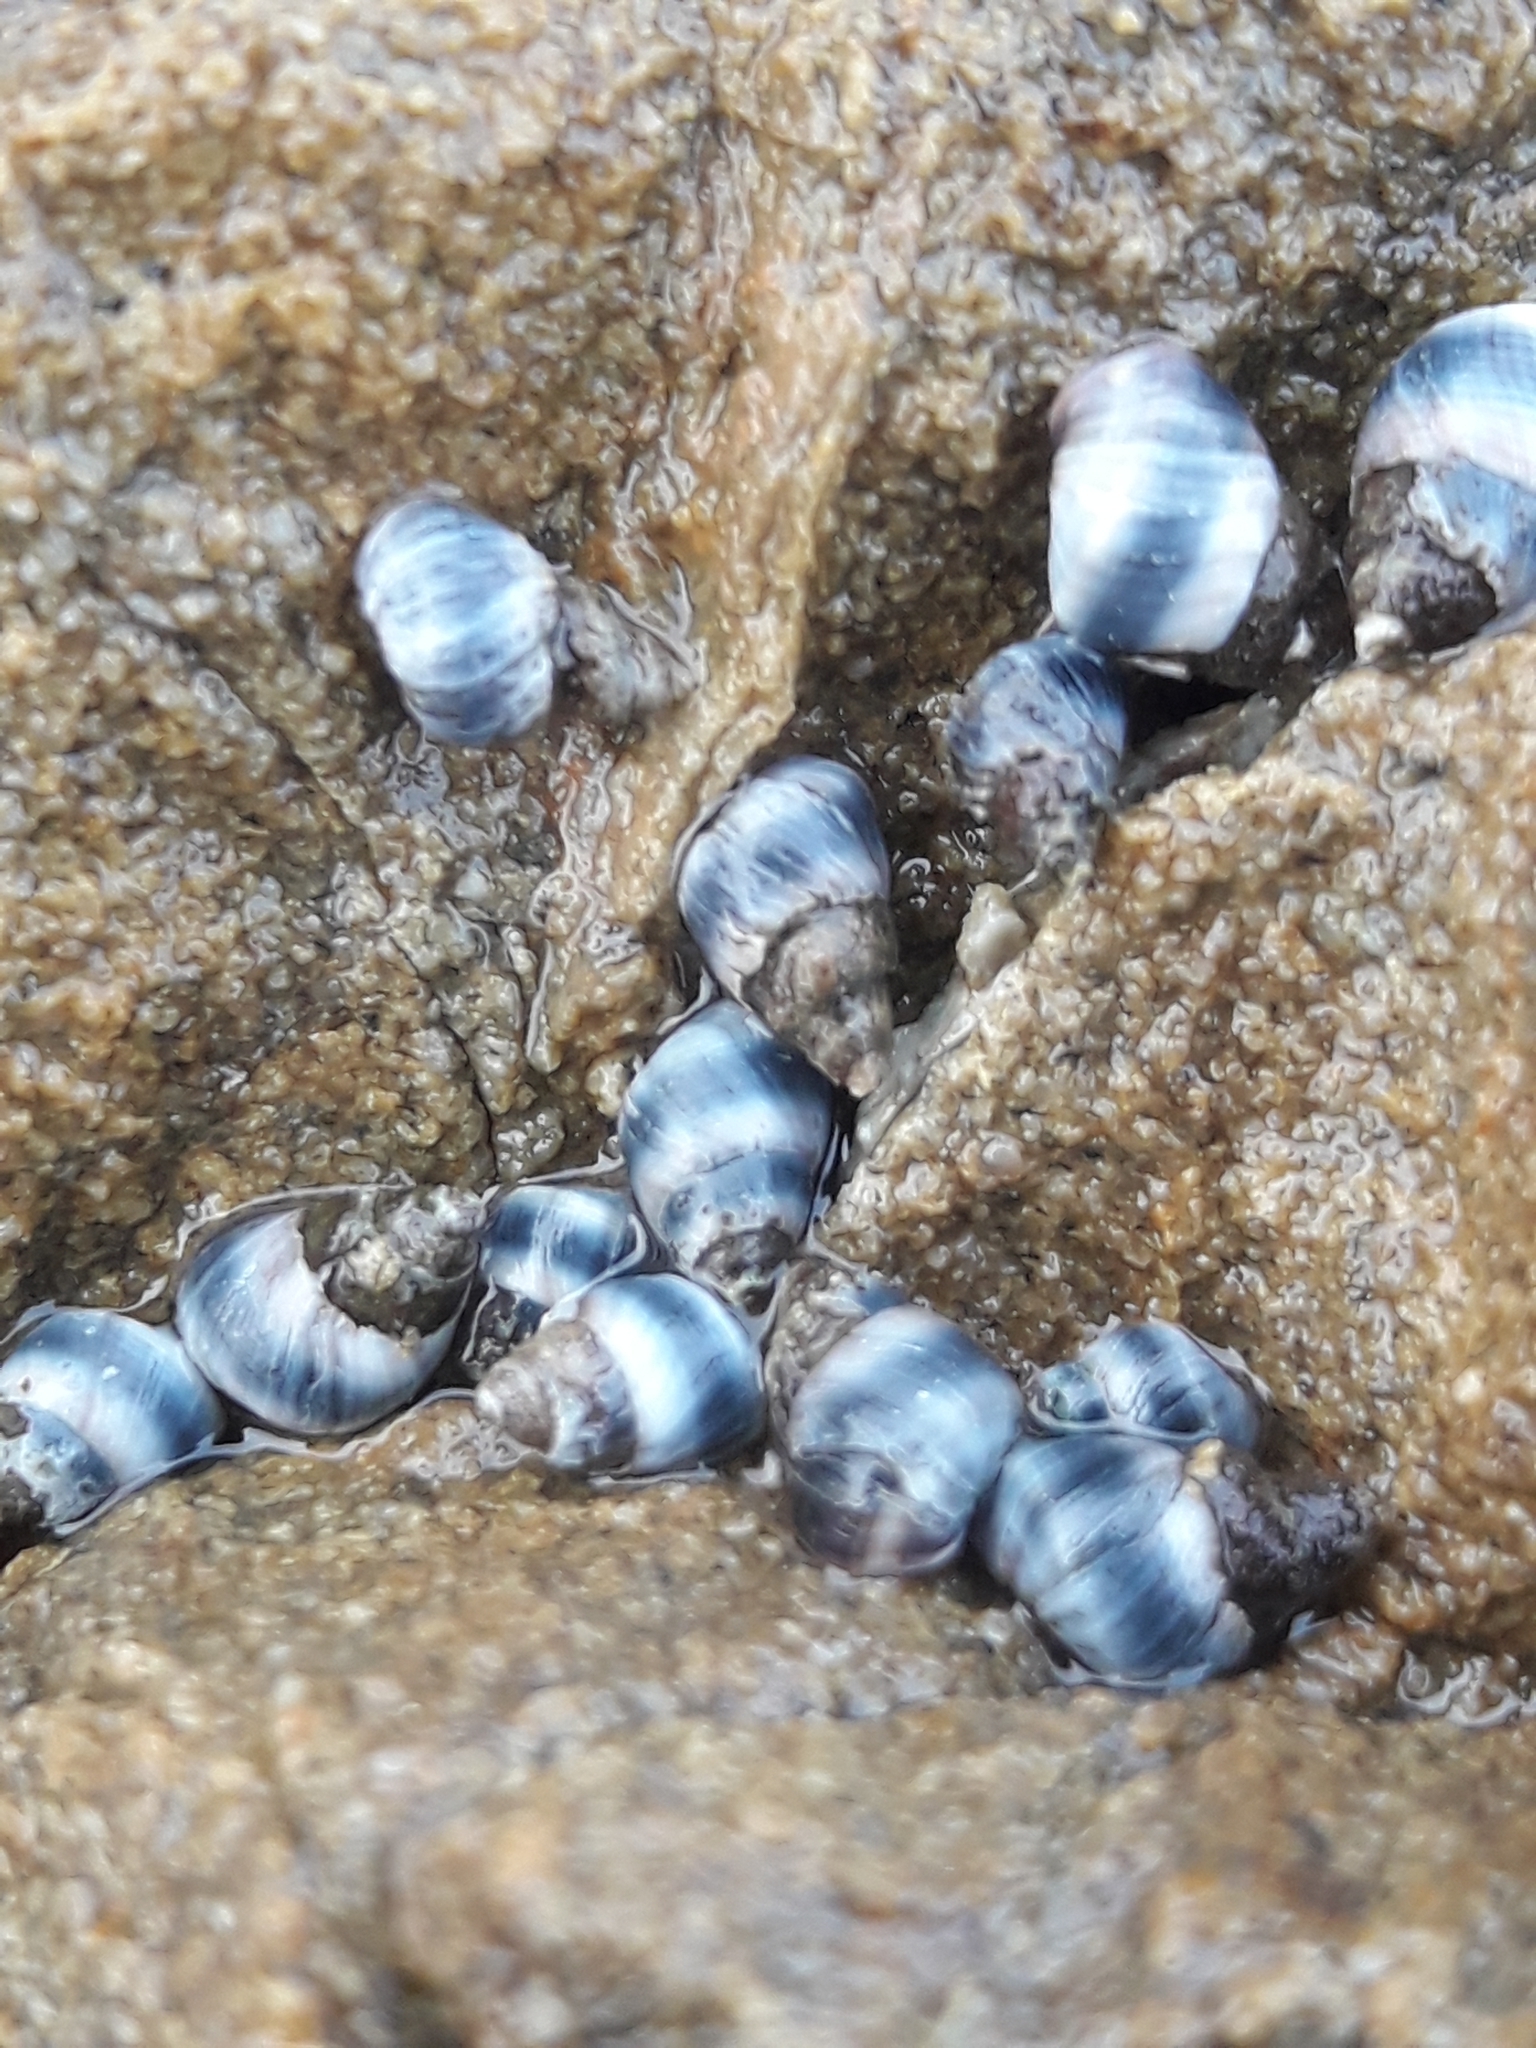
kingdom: Animalia
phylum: Mollusca
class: Gastropoda
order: Littorinimorpha
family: Littorinidae
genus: Austrolittorina
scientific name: Austrolittorina antipodum
